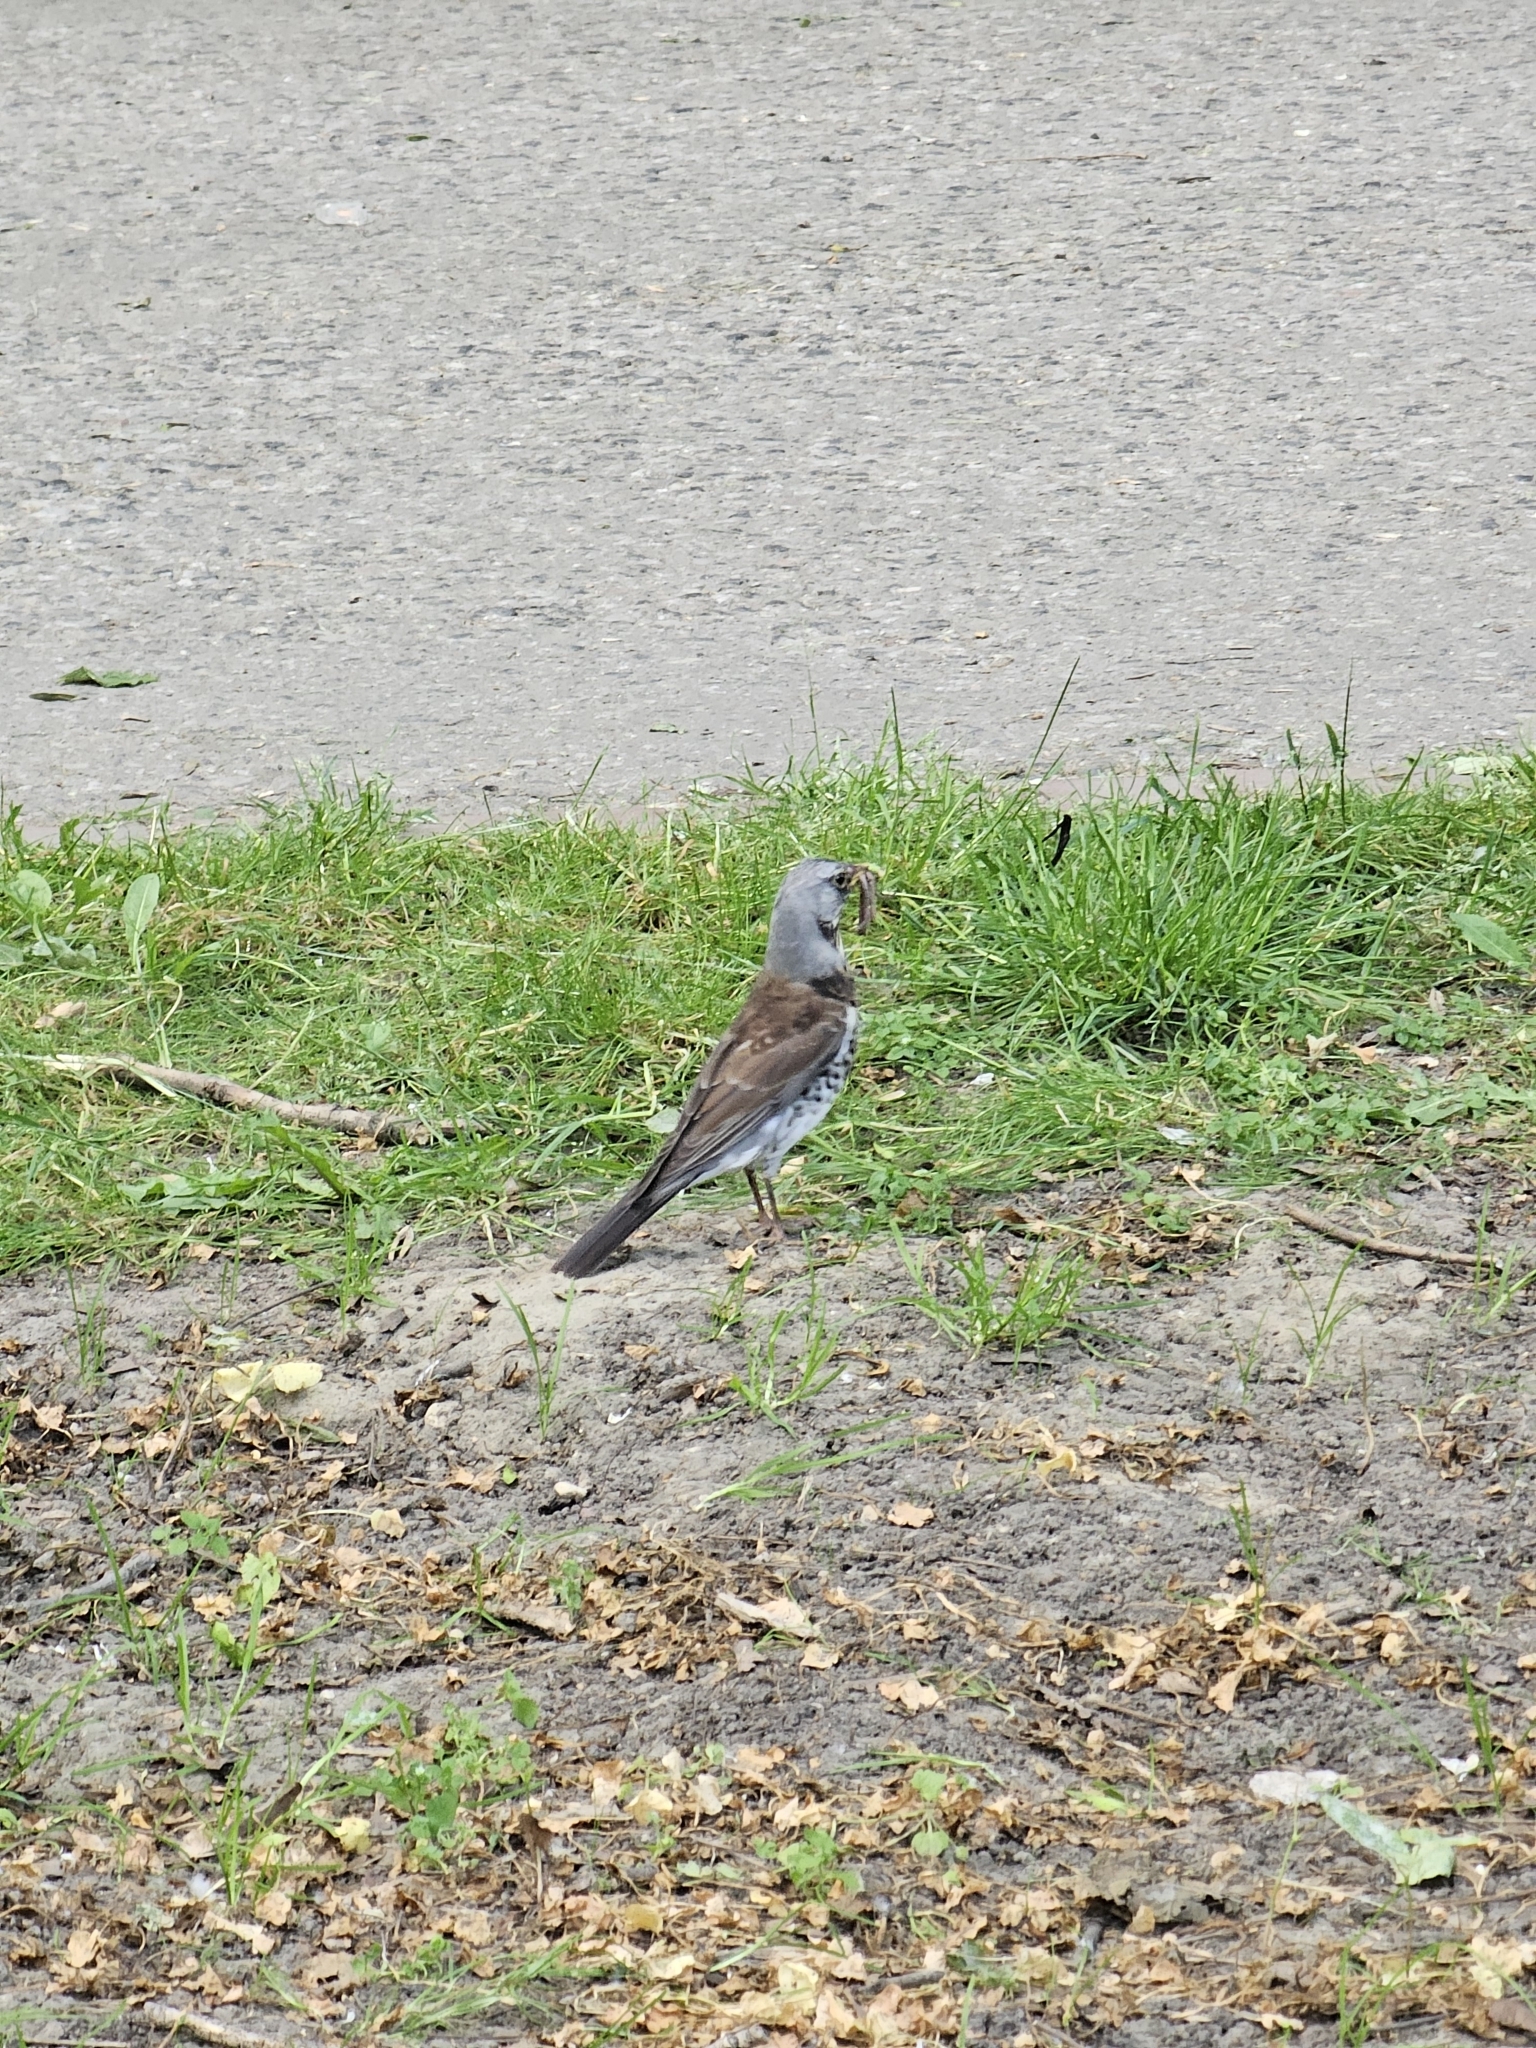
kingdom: Animalia
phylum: Chordata
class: Aves
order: Passeriformes
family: Turdidae
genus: Turdus
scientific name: Turdus pilaris
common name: Fieldfare
